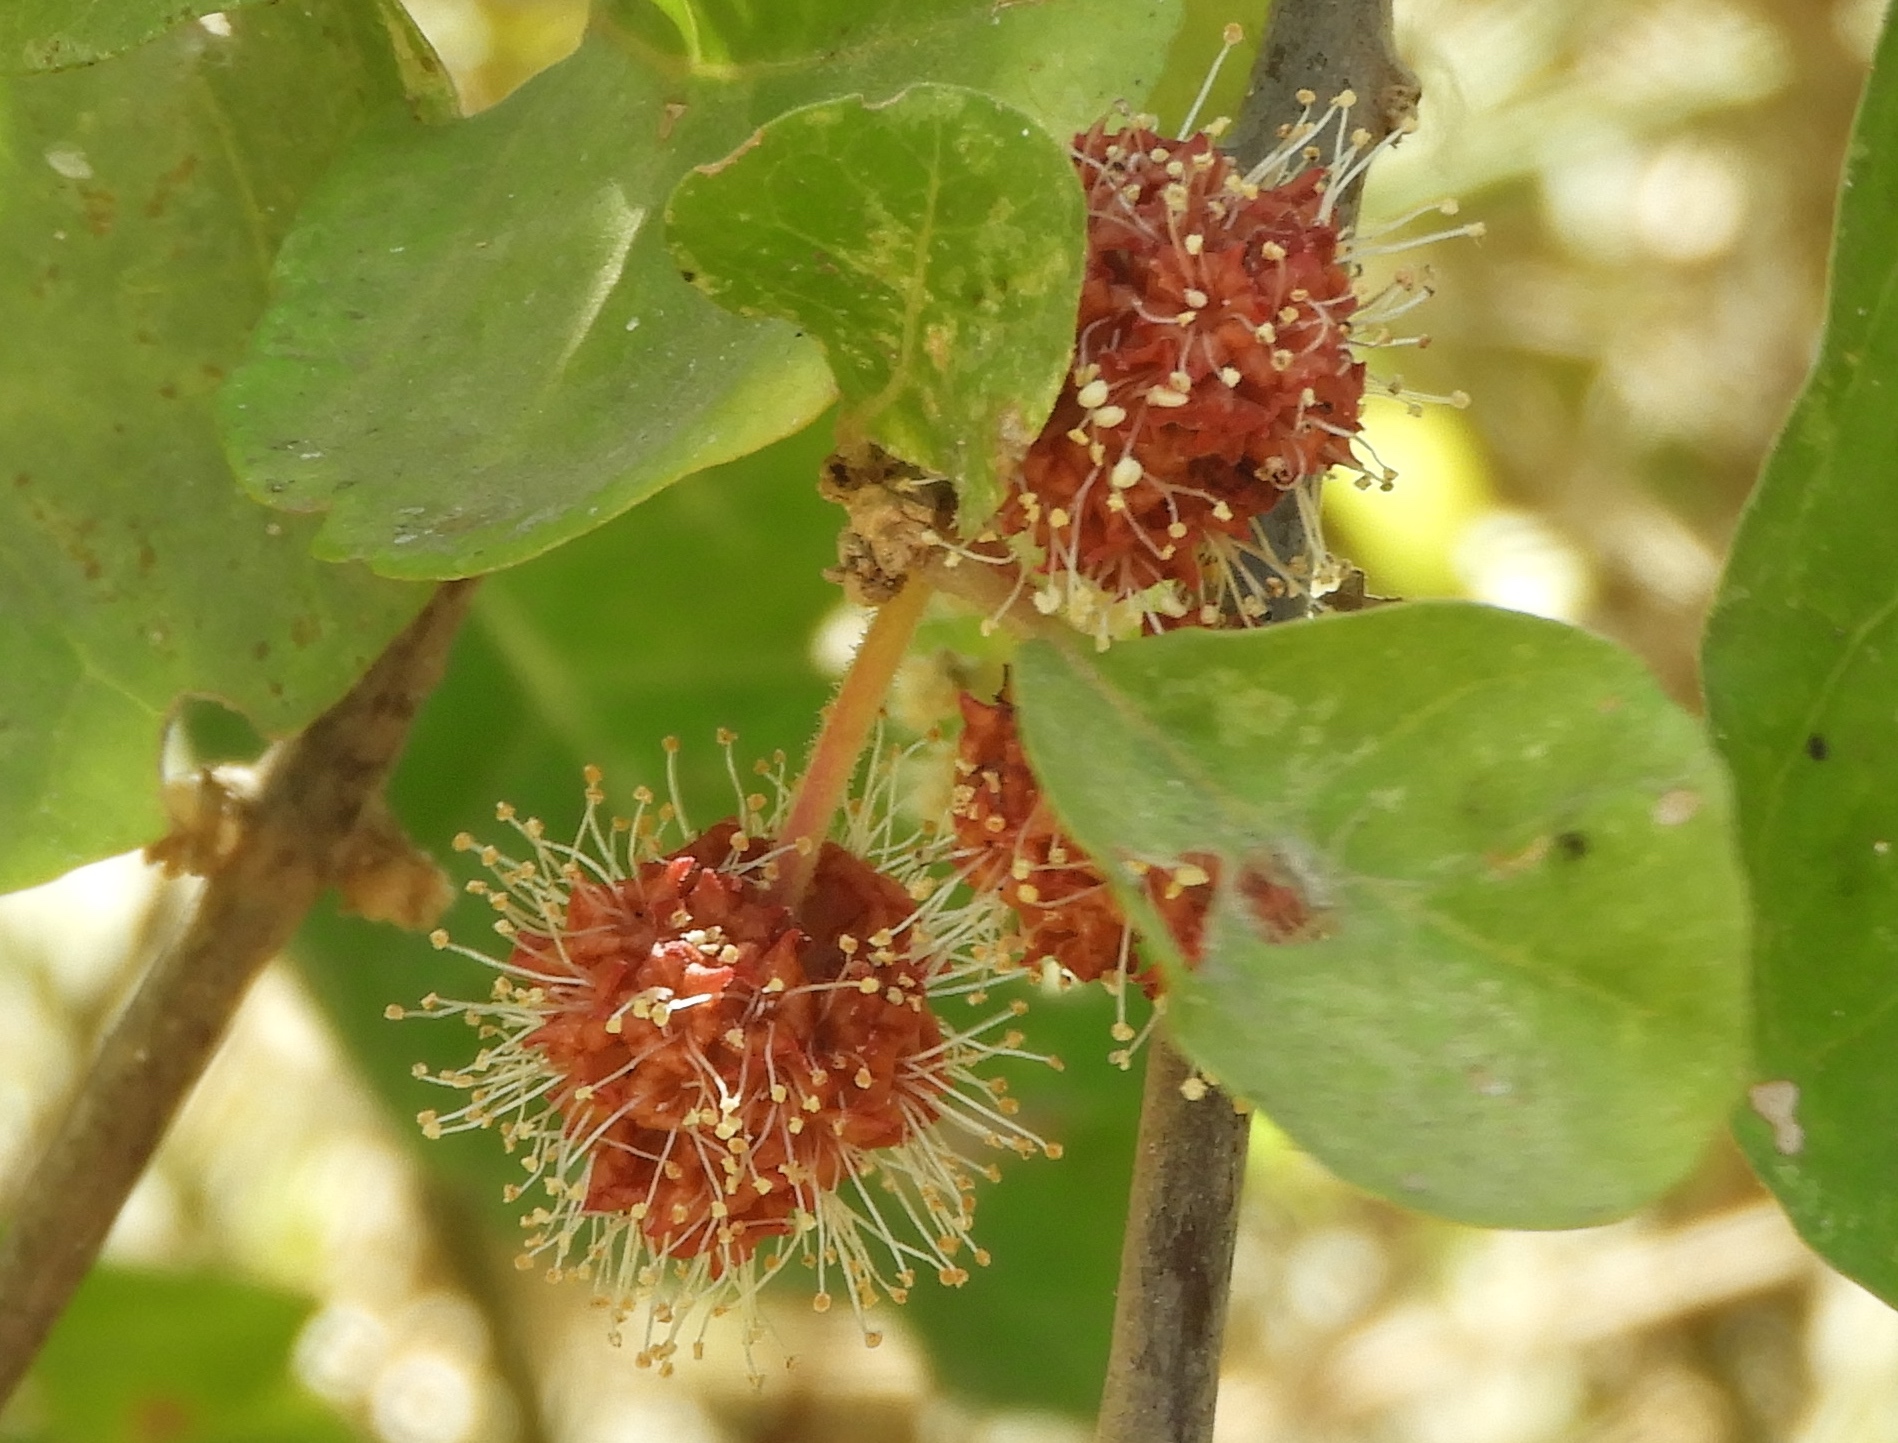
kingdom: Plantae
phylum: Tracheophyta
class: Magnoliopsida
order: Caryophyllales
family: Nyctaginaceae
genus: Pisonia
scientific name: Pisonia capitata
